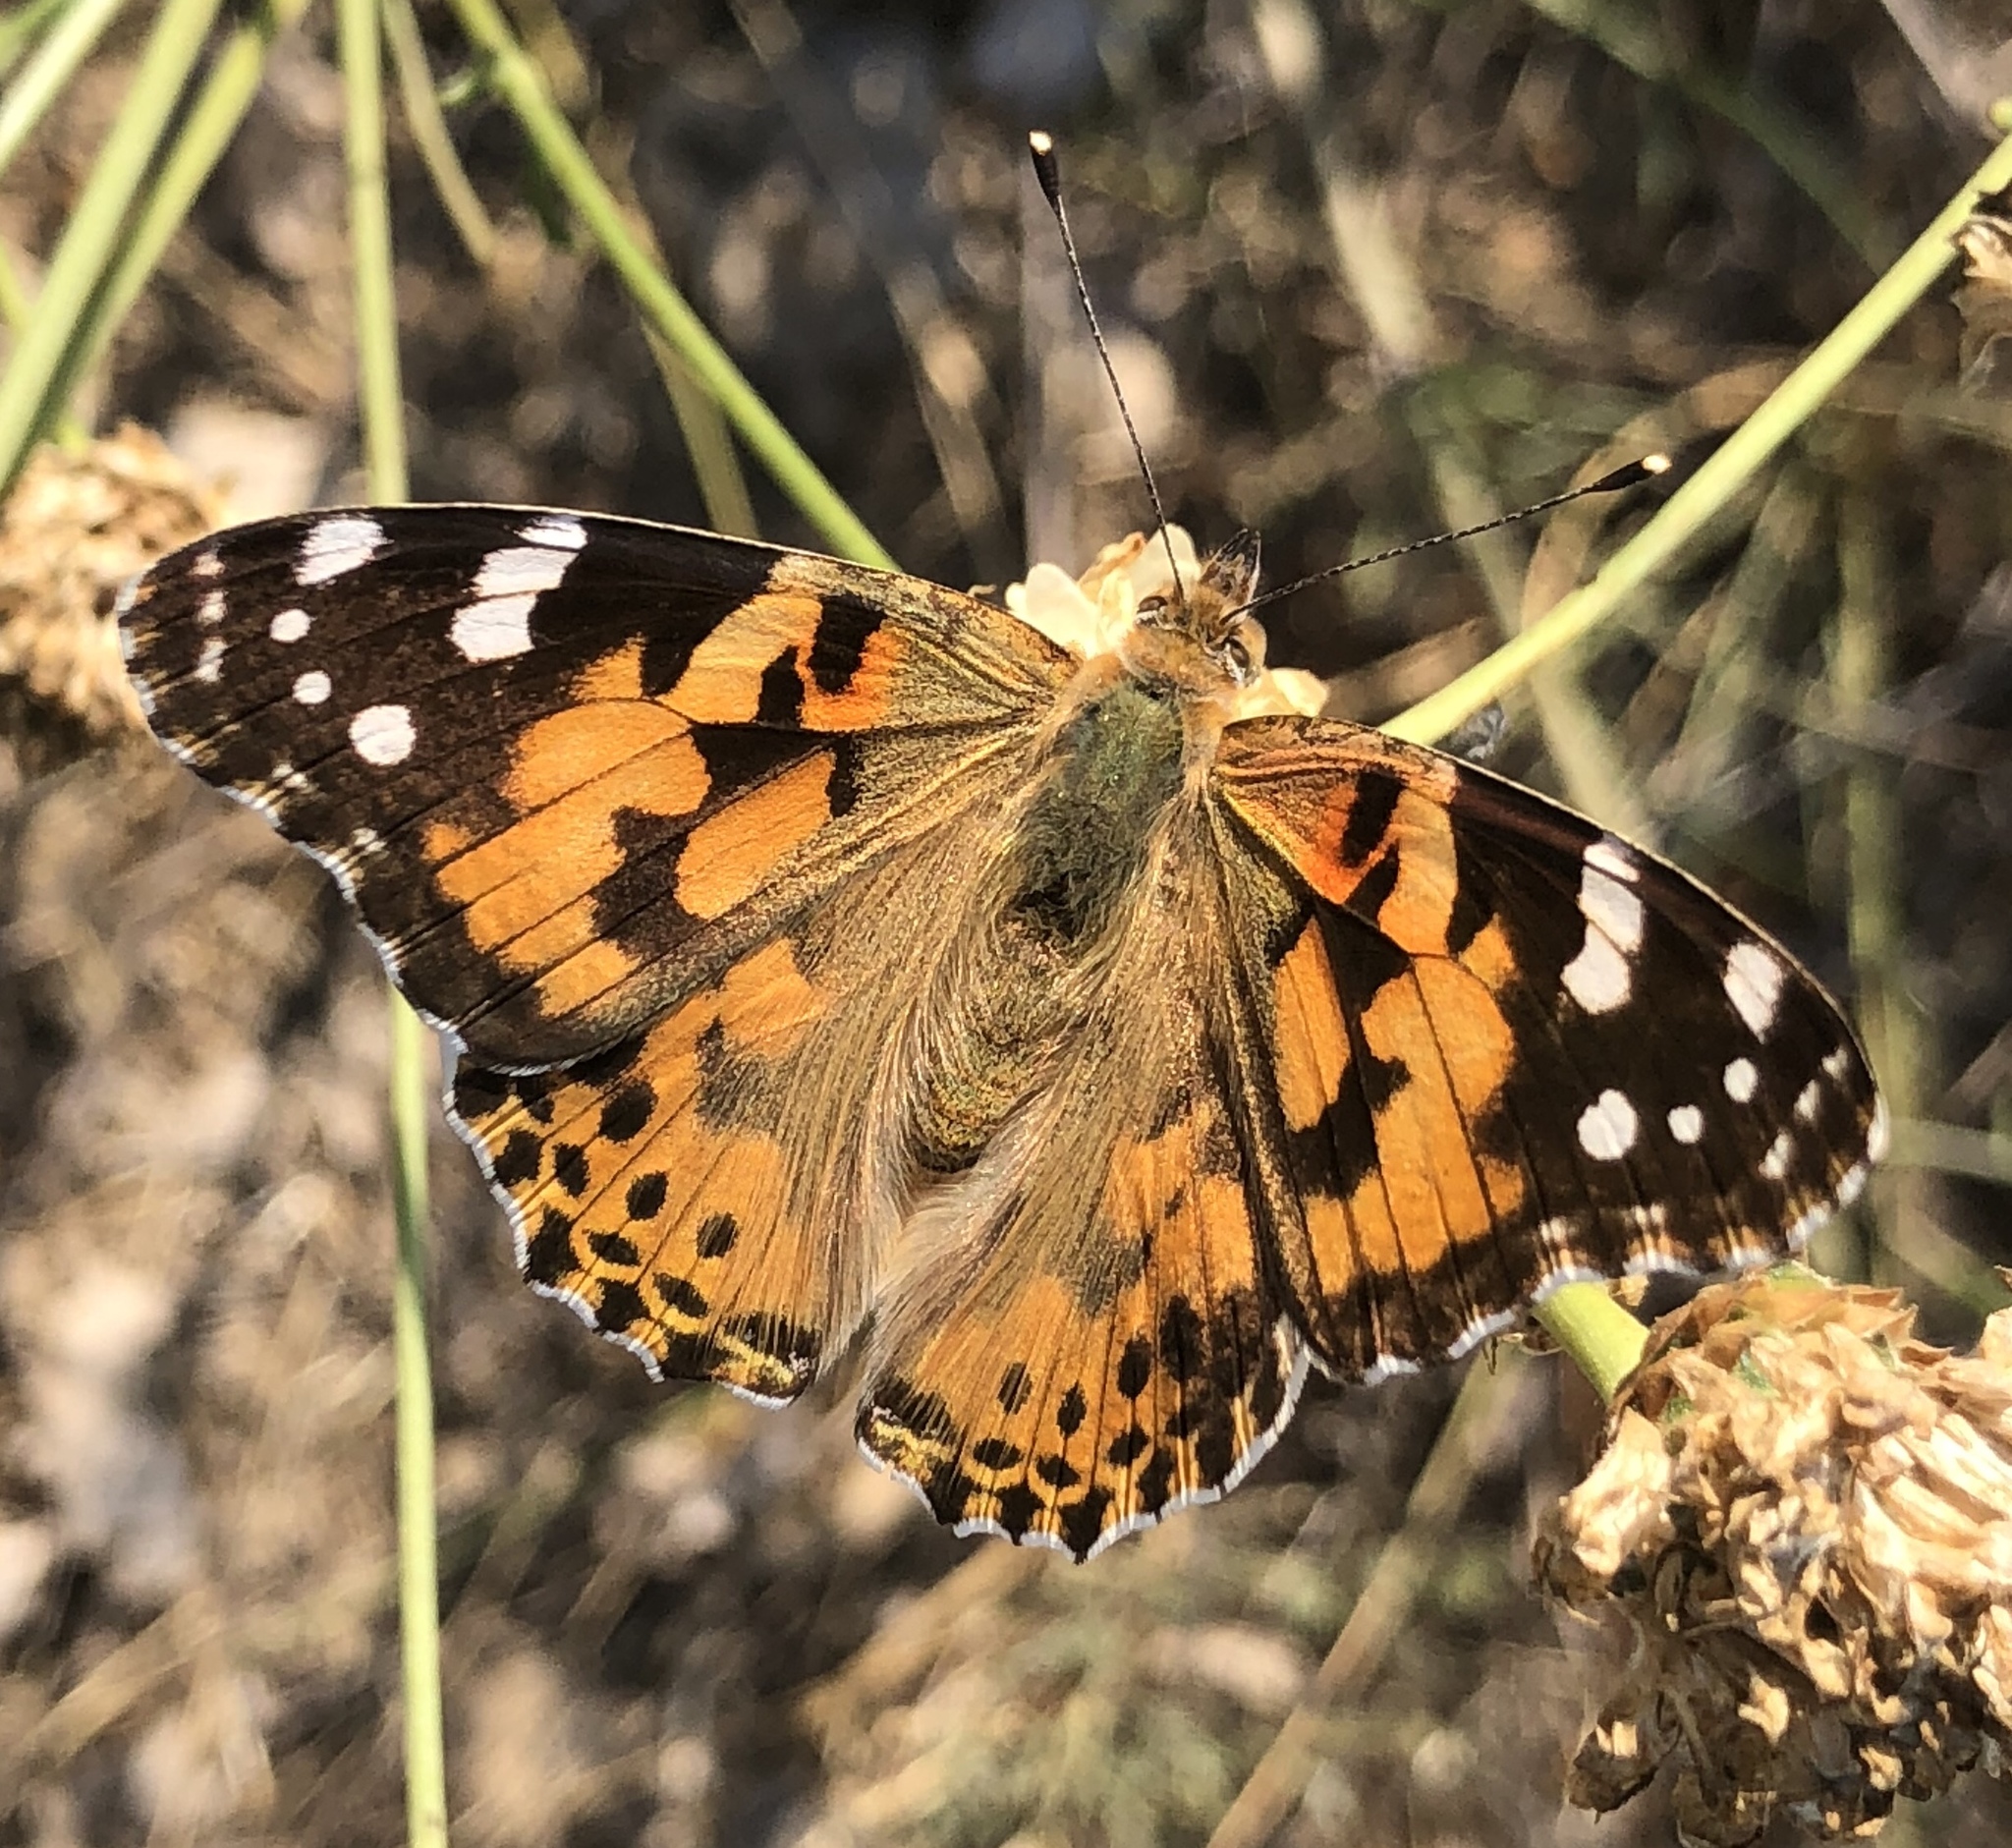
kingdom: Animalia
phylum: Arthropoda
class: Insecta
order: Lepidoptera
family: Nymphalidae
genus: Vanessa
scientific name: Vanessa cardui
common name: Painted lady
